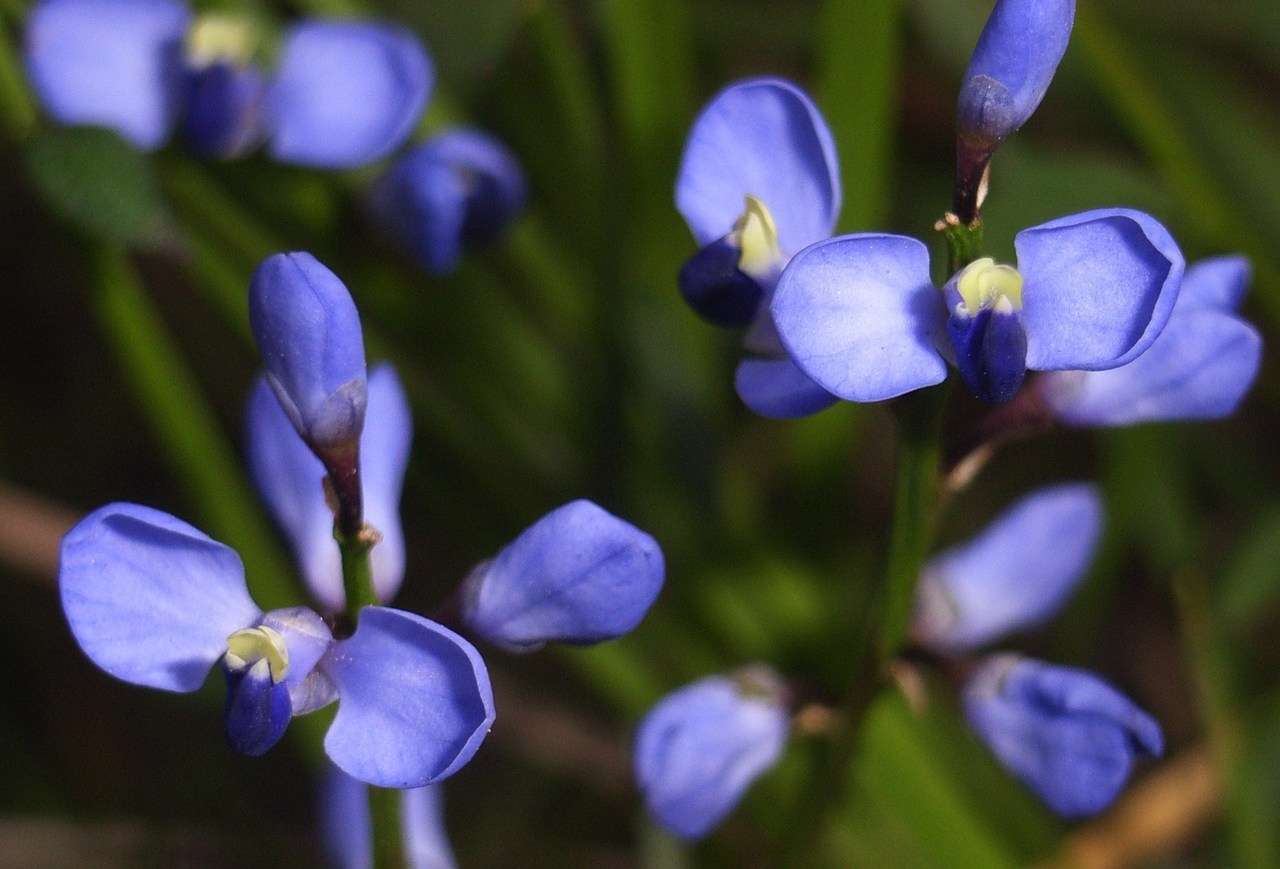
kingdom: Plantae
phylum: Tracheophyta
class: Magnoliopsida
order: Fabales
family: Polygalaceae
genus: Comesperma
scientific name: Comesperma volubile
